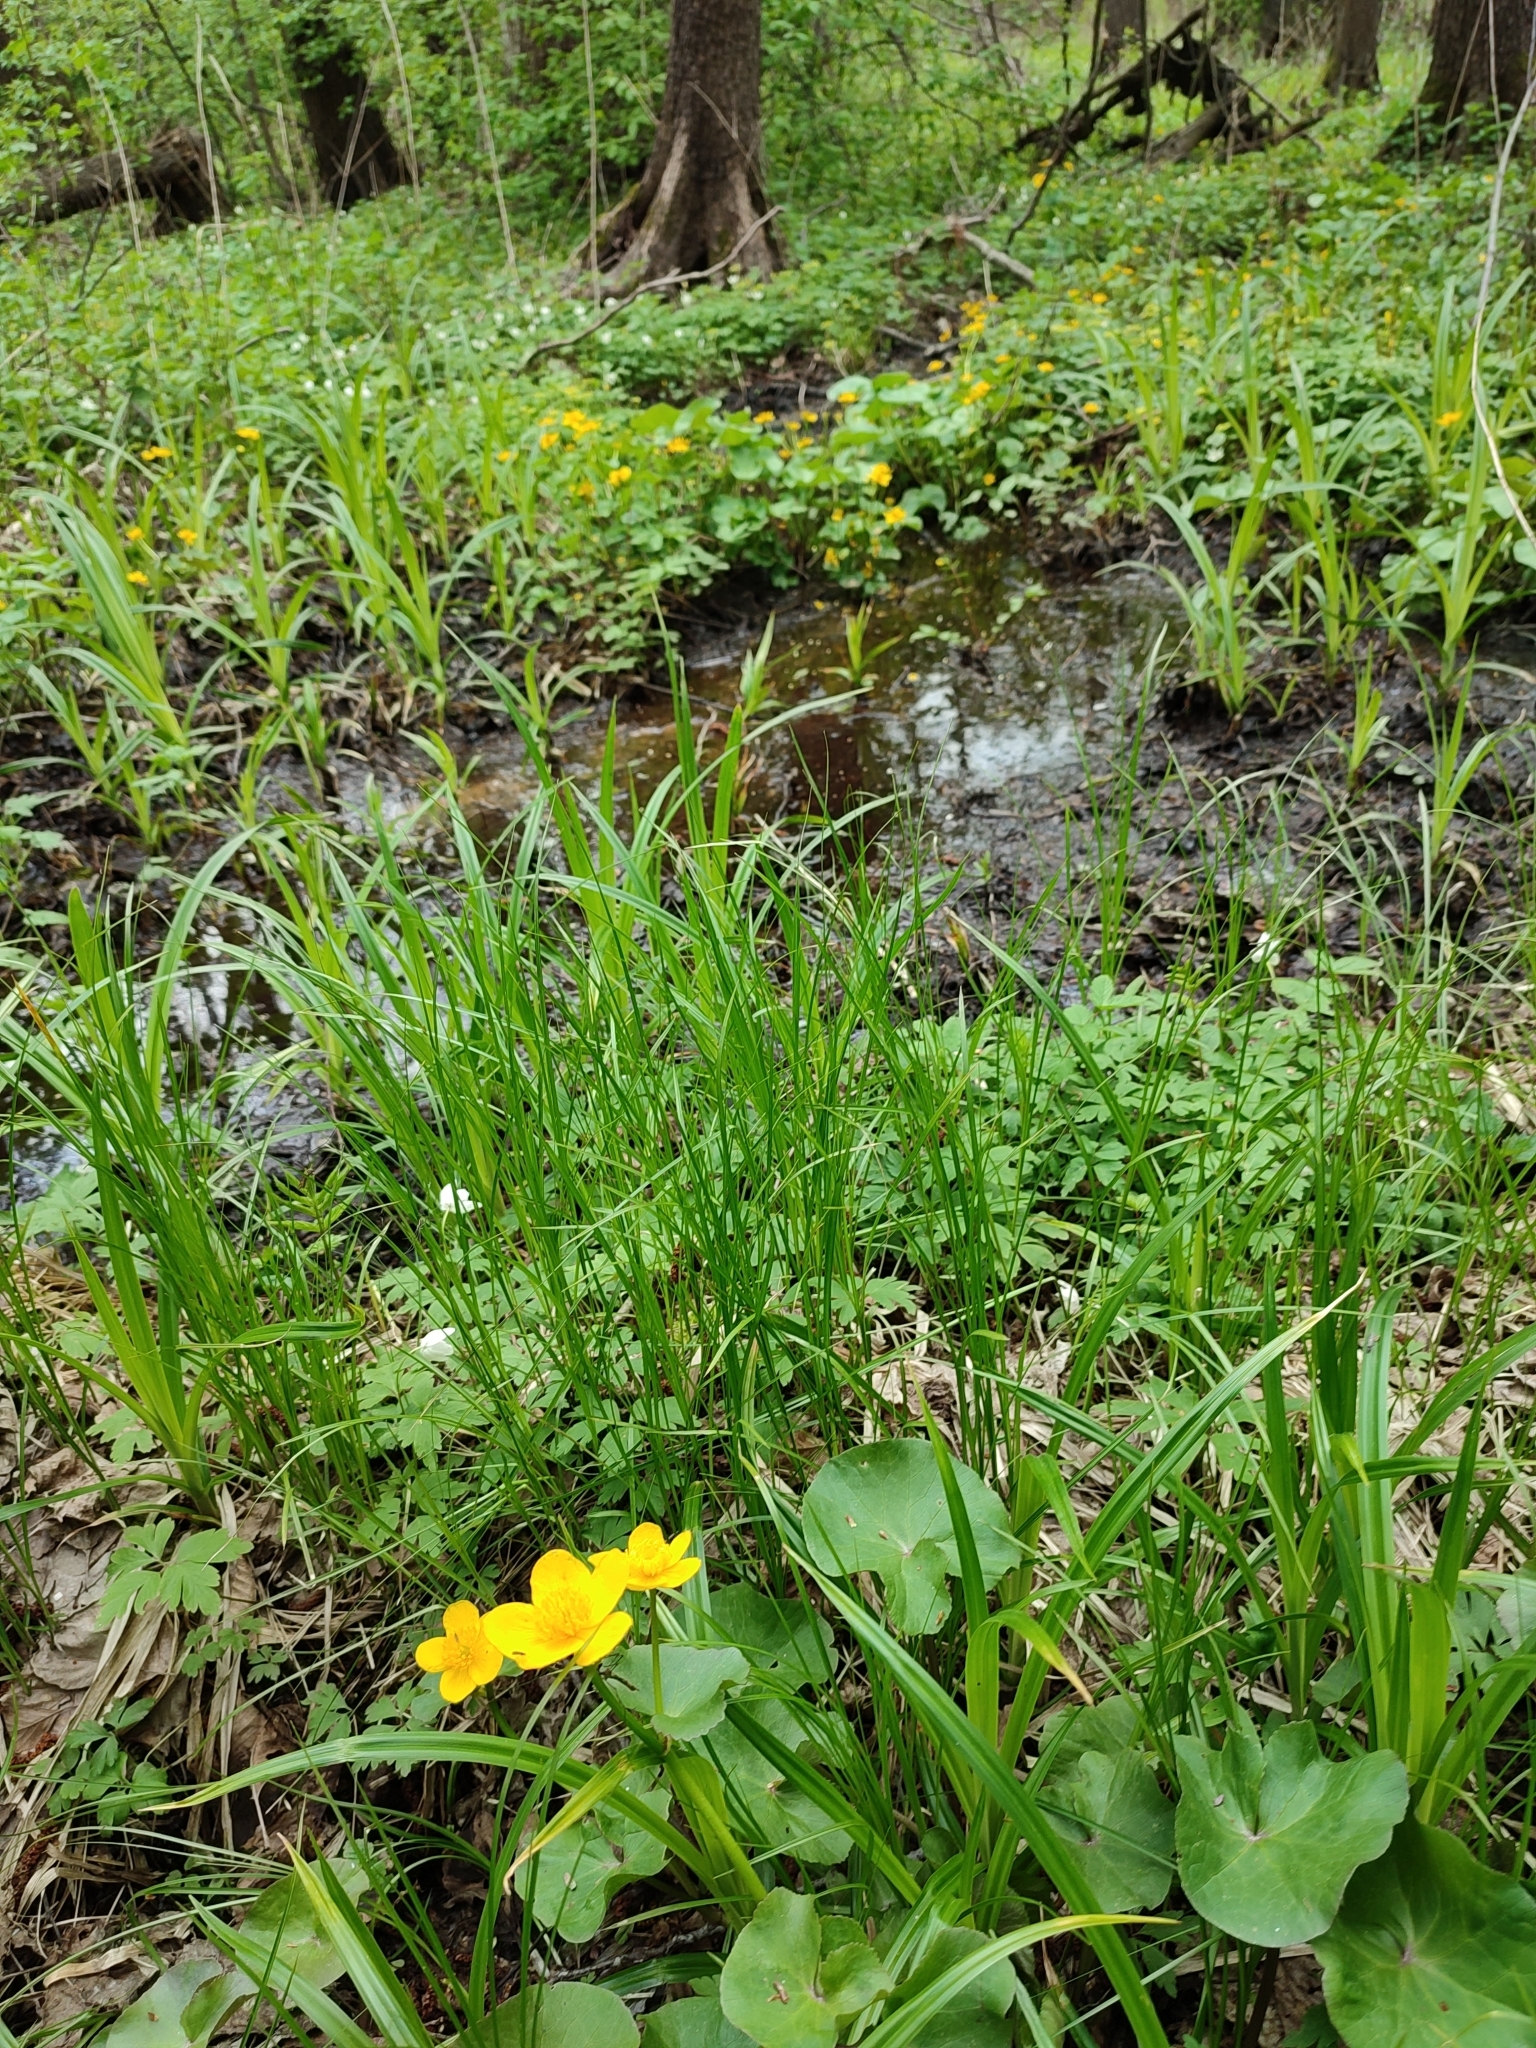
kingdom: Plantae
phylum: Tracheophyta
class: Magnoliopsida
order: Ranunculales
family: Ranunculaceae
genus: Caltha
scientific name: Caltha palustris
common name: Marsh marigold
